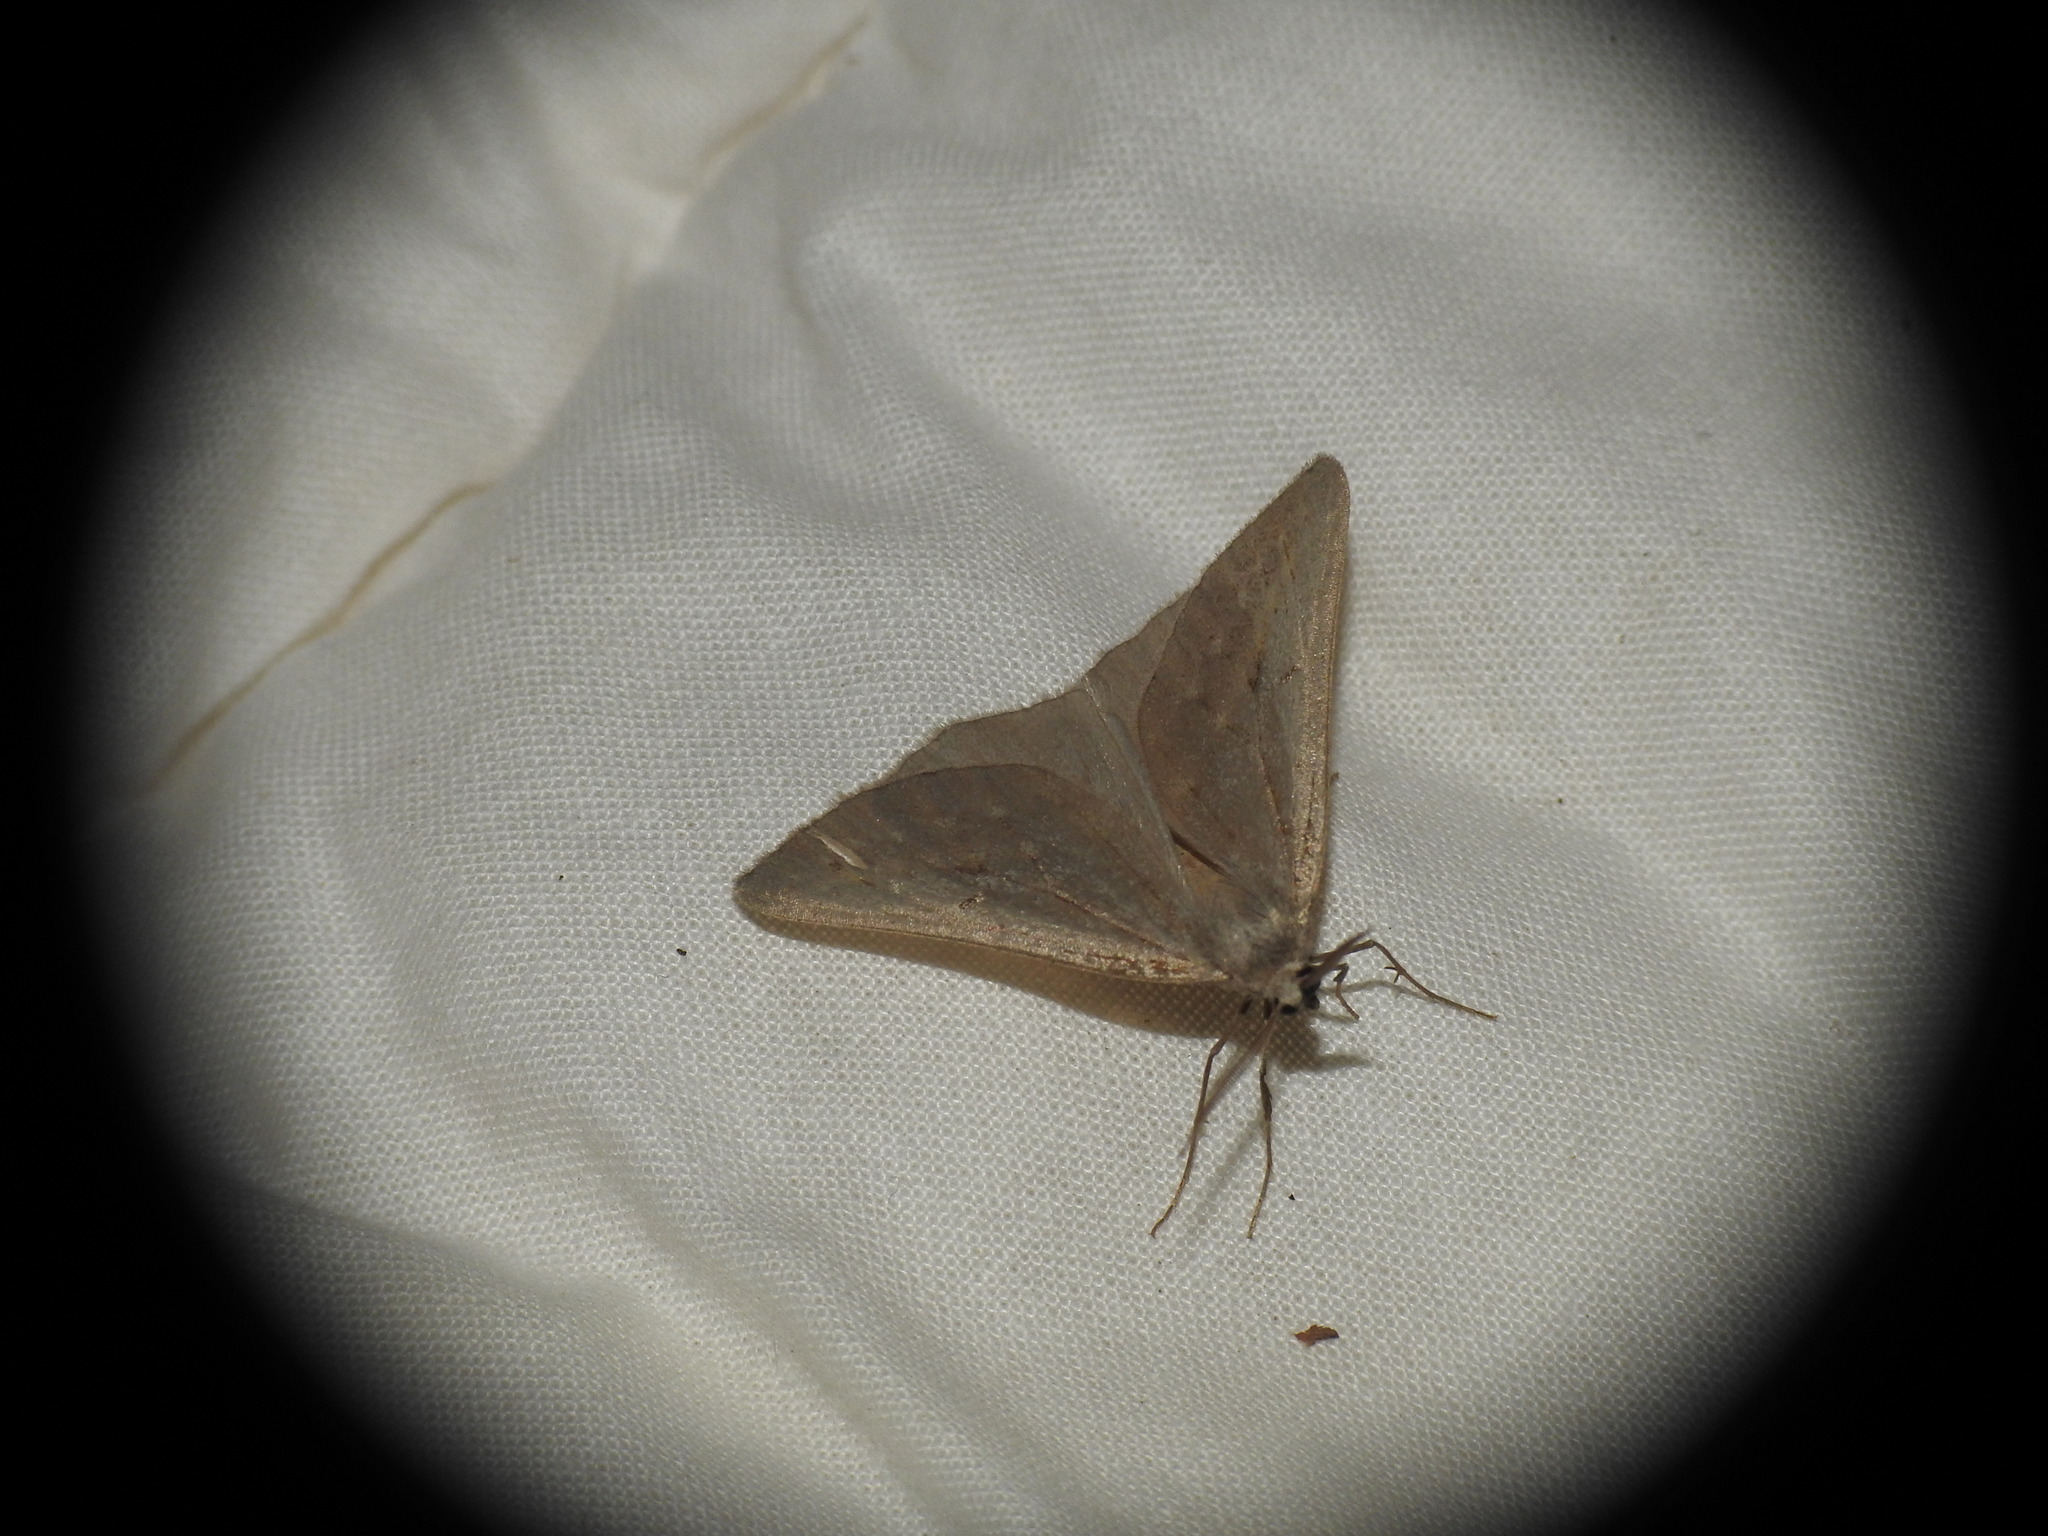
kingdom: Animalia
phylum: Arthropoda
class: Insecta
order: Lepidoptera
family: Geometridae
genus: Chemerina
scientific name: Chemerina caliginearia
